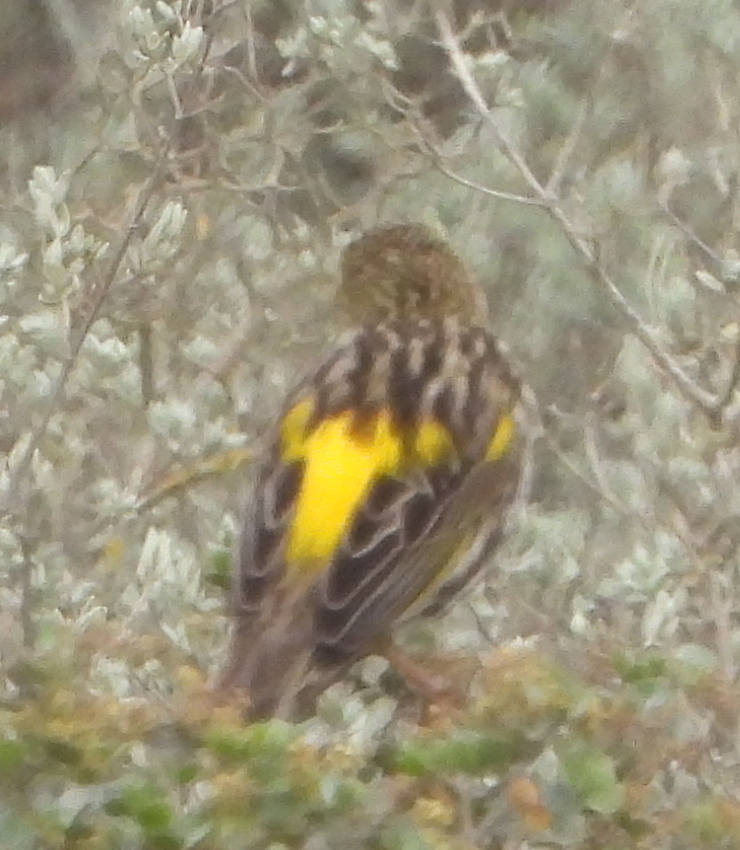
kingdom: Animalia
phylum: Chordata
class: Aves
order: Passeriformes
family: Ploceidae
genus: Euplectes
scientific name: Euplectes capensis
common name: Yellow bishop
